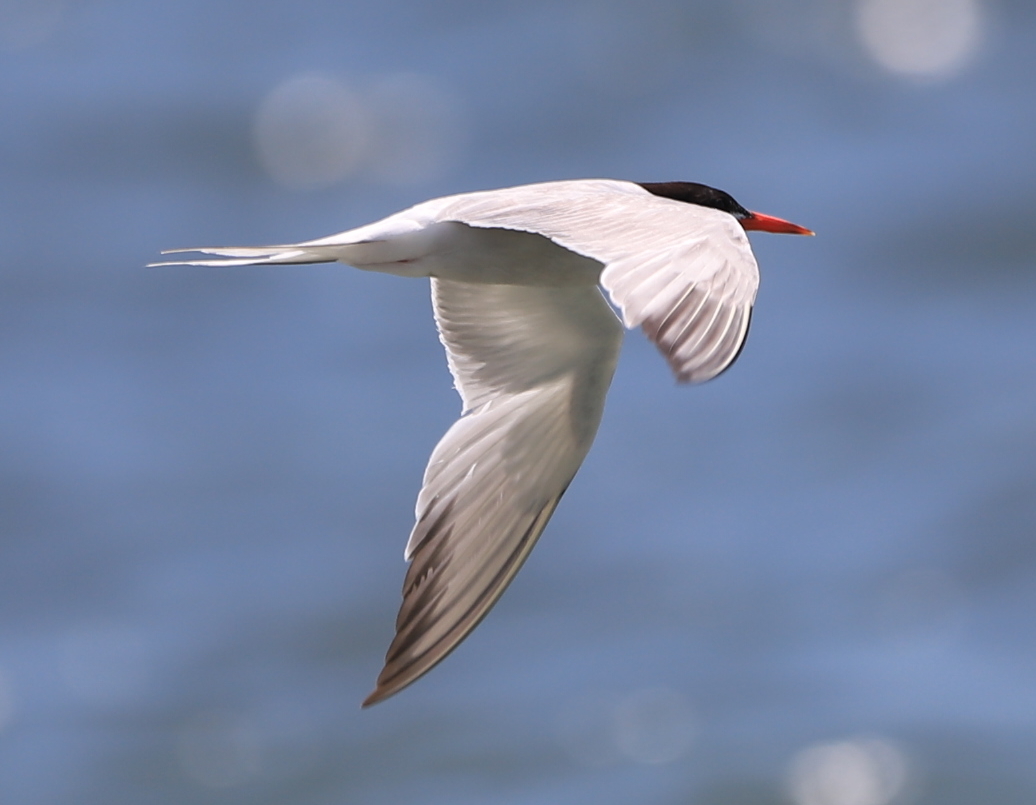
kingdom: Animalia
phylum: Chordata
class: Aves
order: Charadriiformes
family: Laridae
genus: Sterna
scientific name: Sterna hirundo
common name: Common tern
